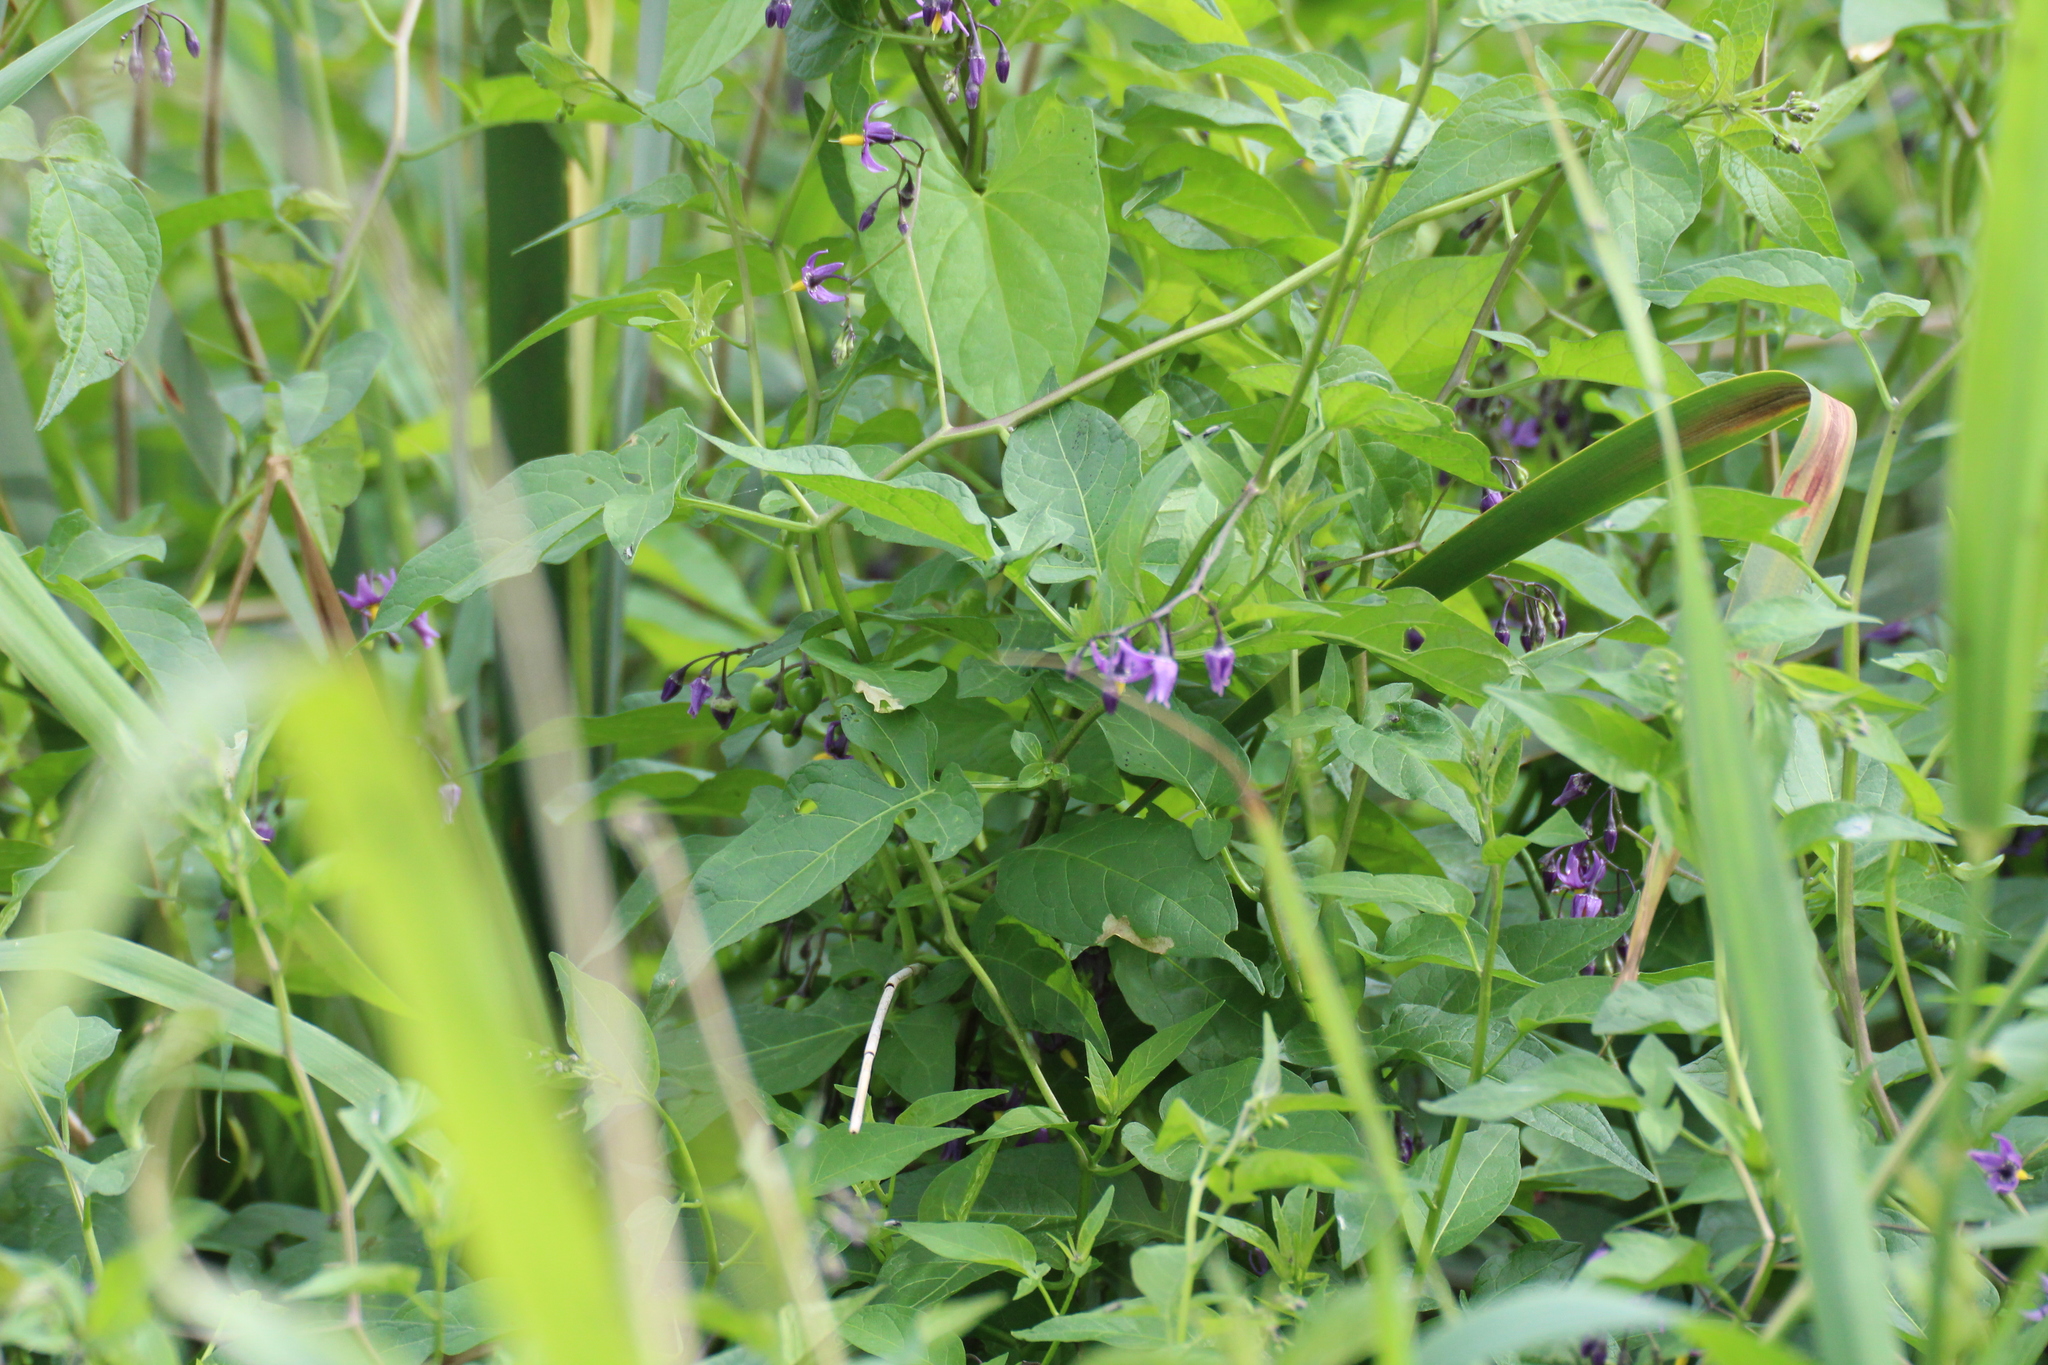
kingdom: Plantae
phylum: Tracheophyta
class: Magnoliopsida
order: Solanales
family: Solanaceae
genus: Solanum
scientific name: Solanum dulcamara
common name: Climbing nightshade
